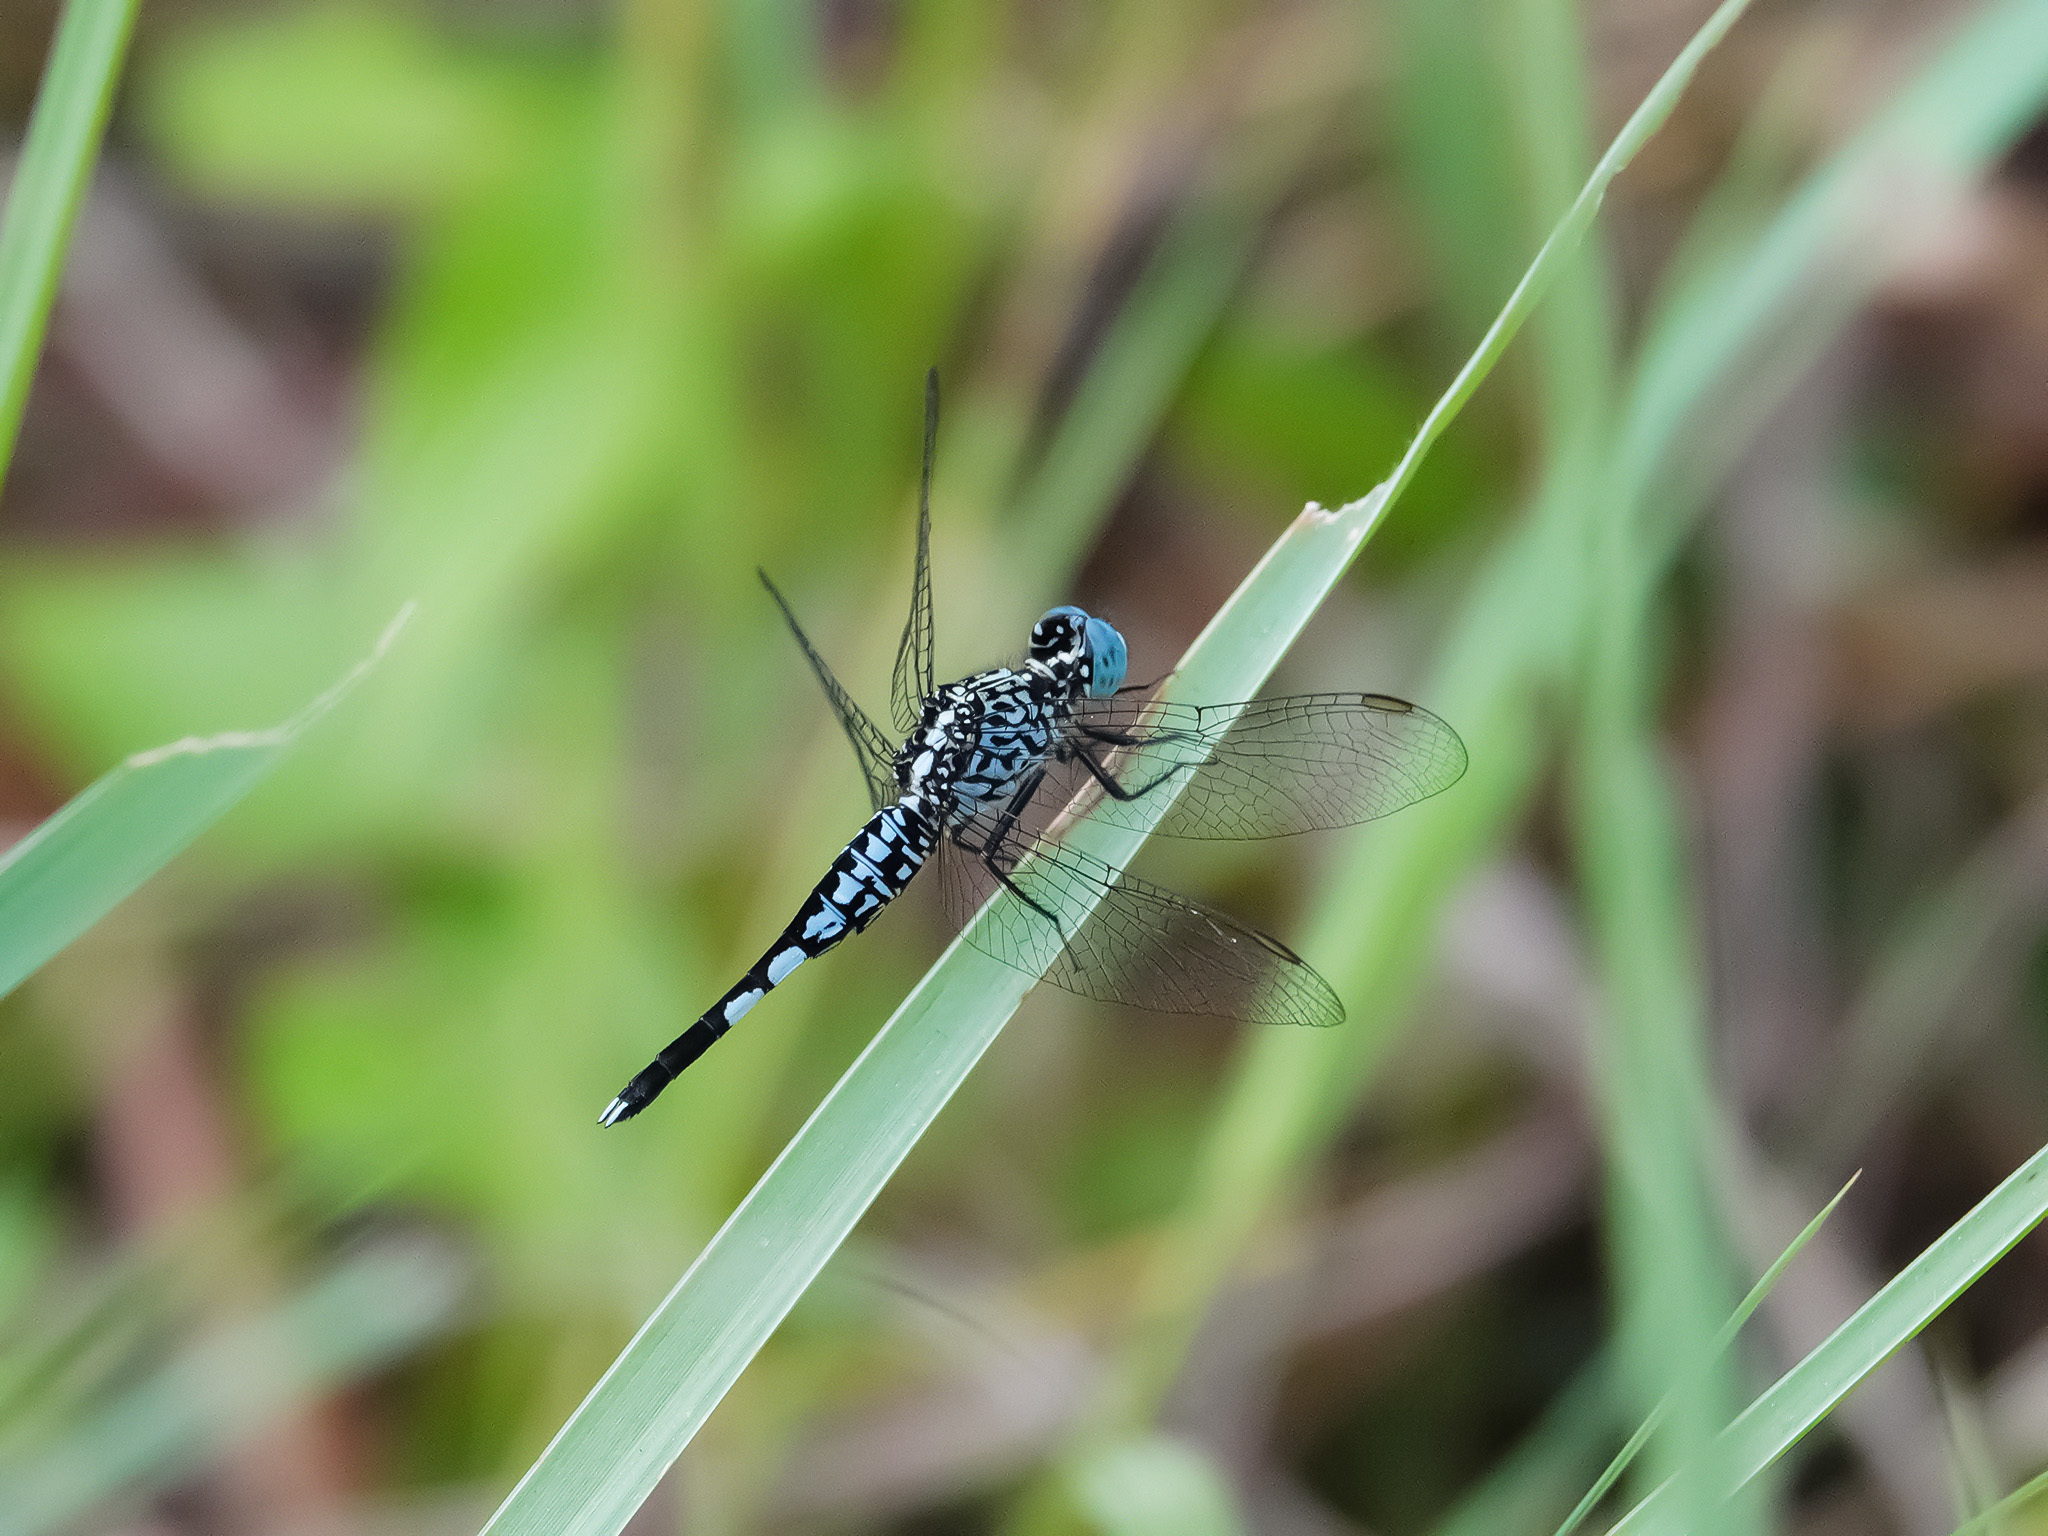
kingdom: Animalia
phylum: Arthropoda
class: Insecta
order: Odonata
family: Libellulidae
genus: Acisoma
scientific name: Acisoma panorpoides
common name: Asian pintail
